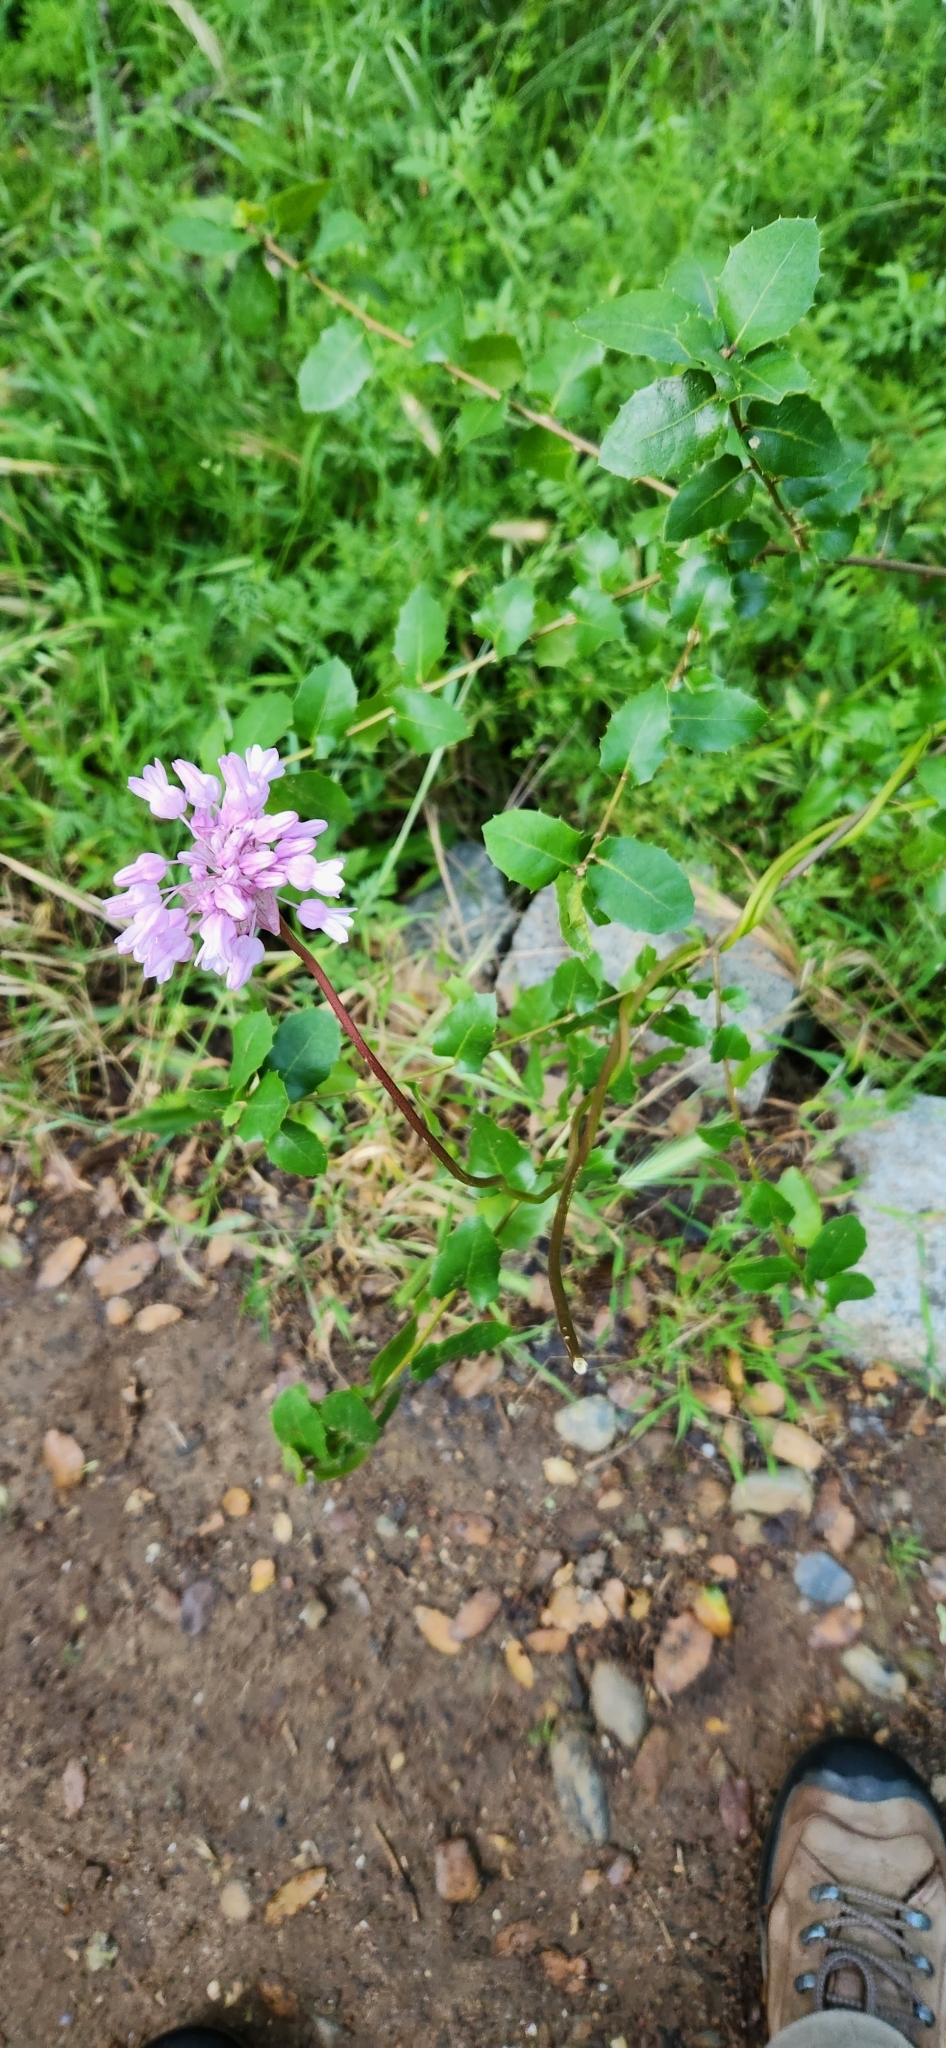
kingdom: Plantae
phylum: Tracheophyta
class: Liliopsida
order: Asparagales
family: Asparagaceae
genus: Dichelostemma
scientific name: Dichelostemma volubile
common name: Trining brodiaea
